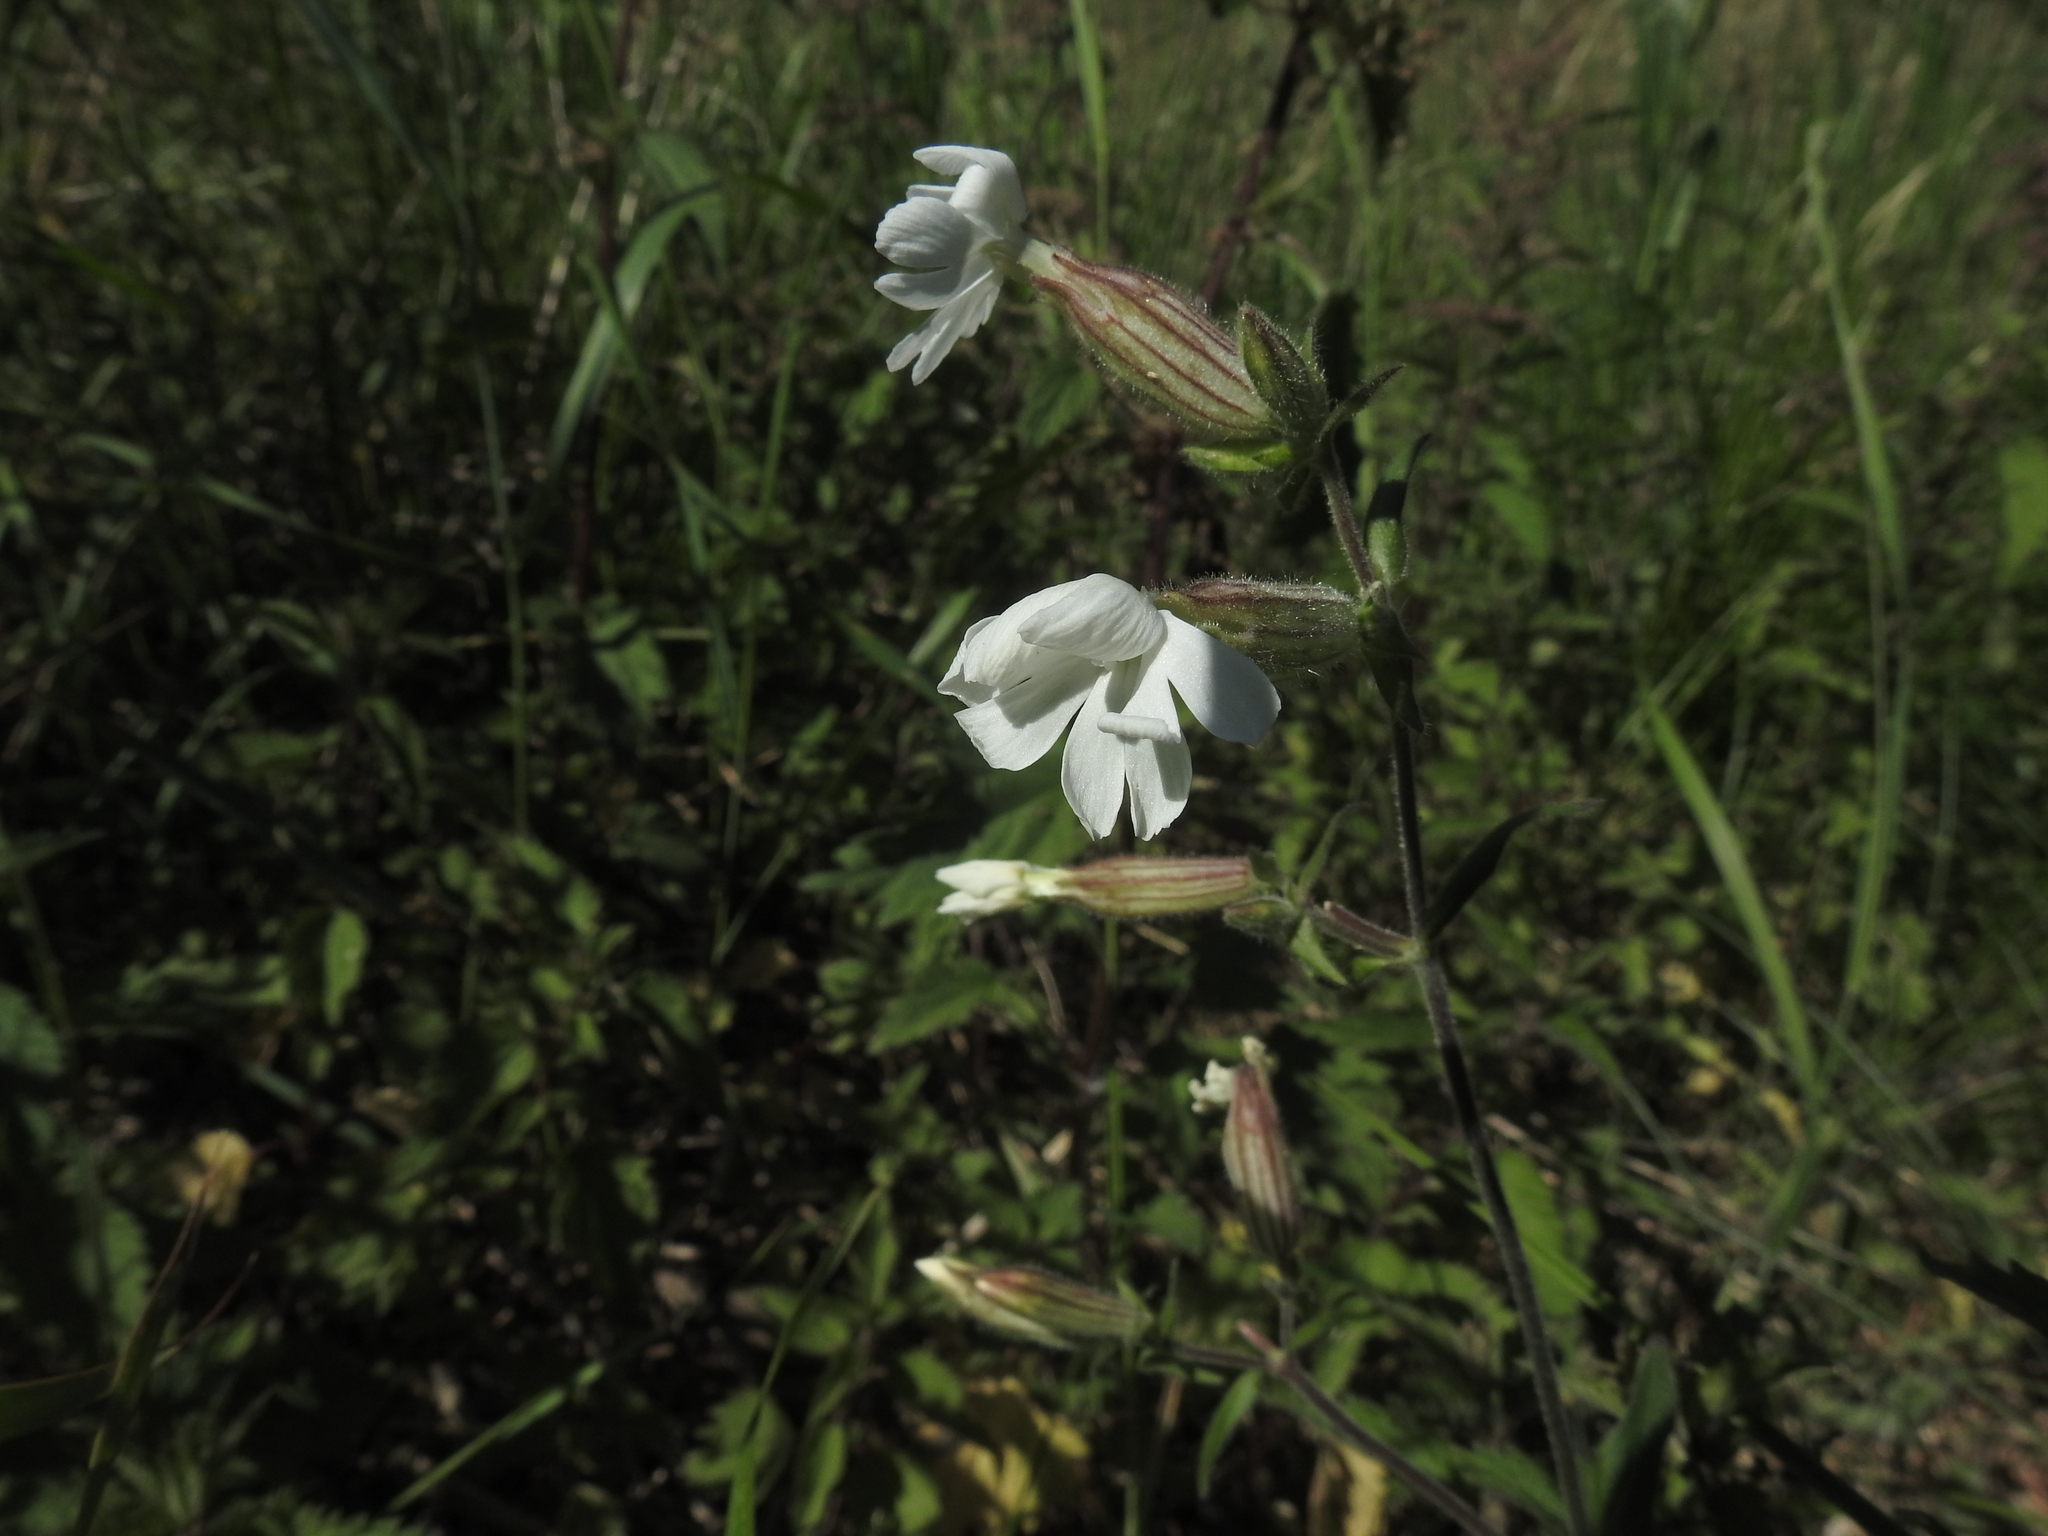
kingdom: Plantae
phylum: Tracheophyta
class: Magnoliopsida
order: Caryophyllales
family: Caryophyllaceae
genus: Silene
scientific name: Silene latifolia
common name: White campion
